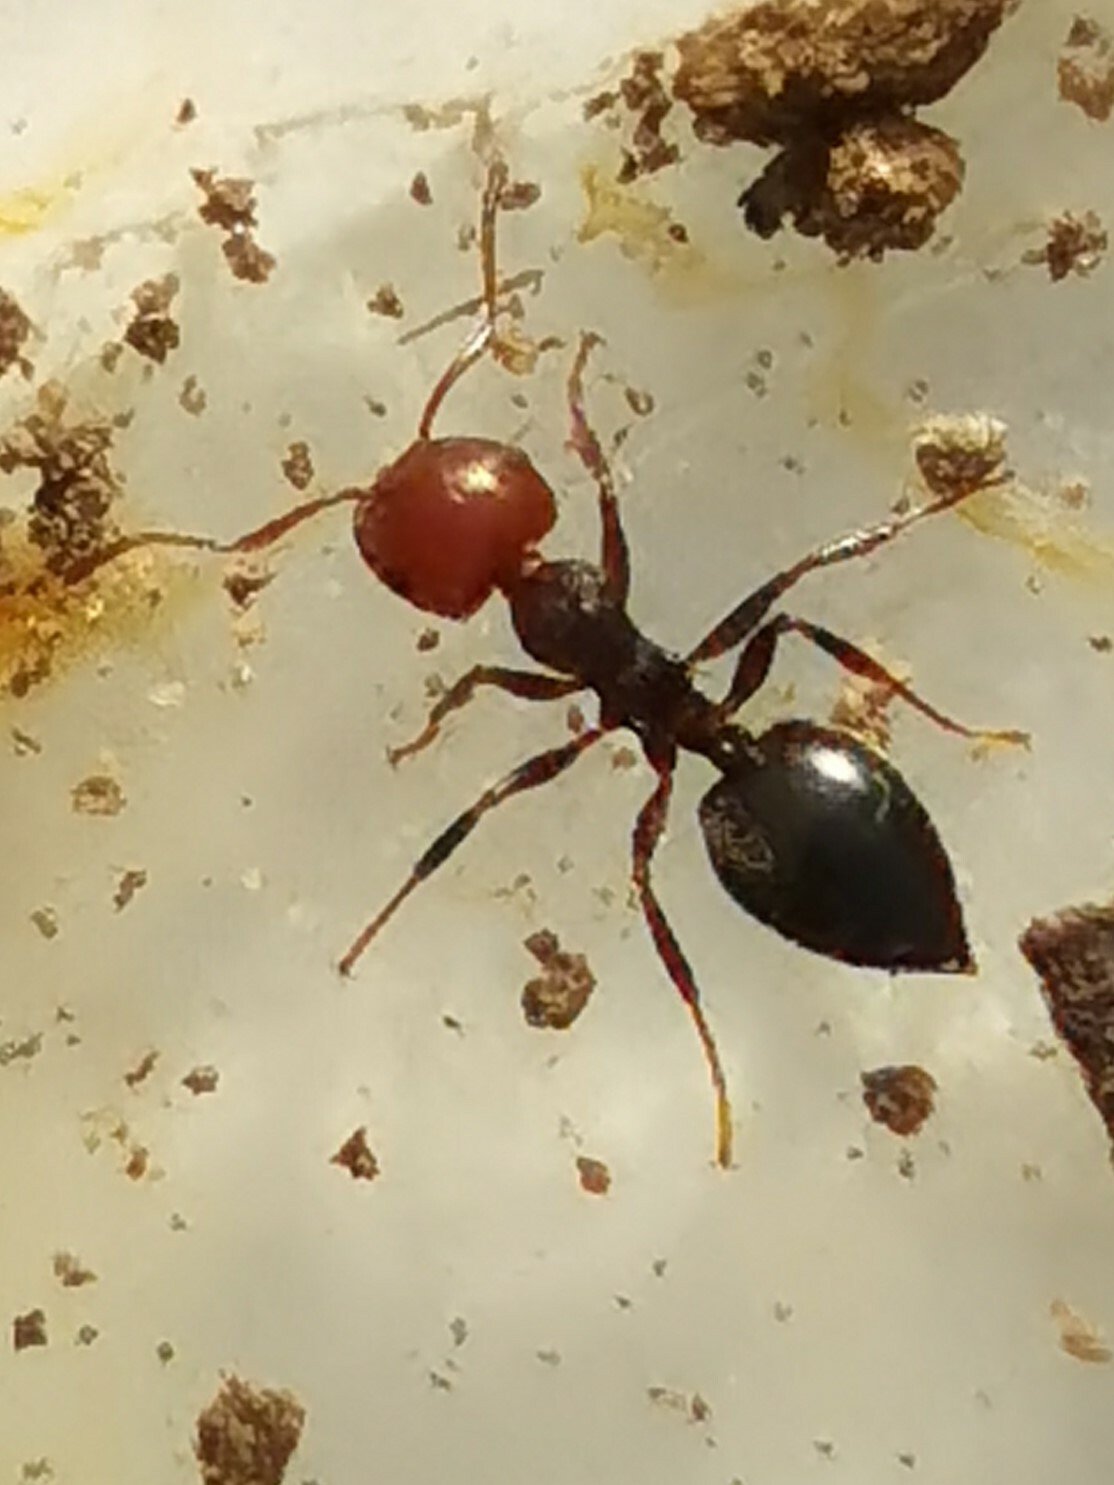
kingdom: Animalia
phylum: Arthropoda
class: Insecta
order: Hymenoptera
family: Formicidae
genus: Crematogaster
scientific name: Crematogaster scutellaris
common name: Fourmi du liège
